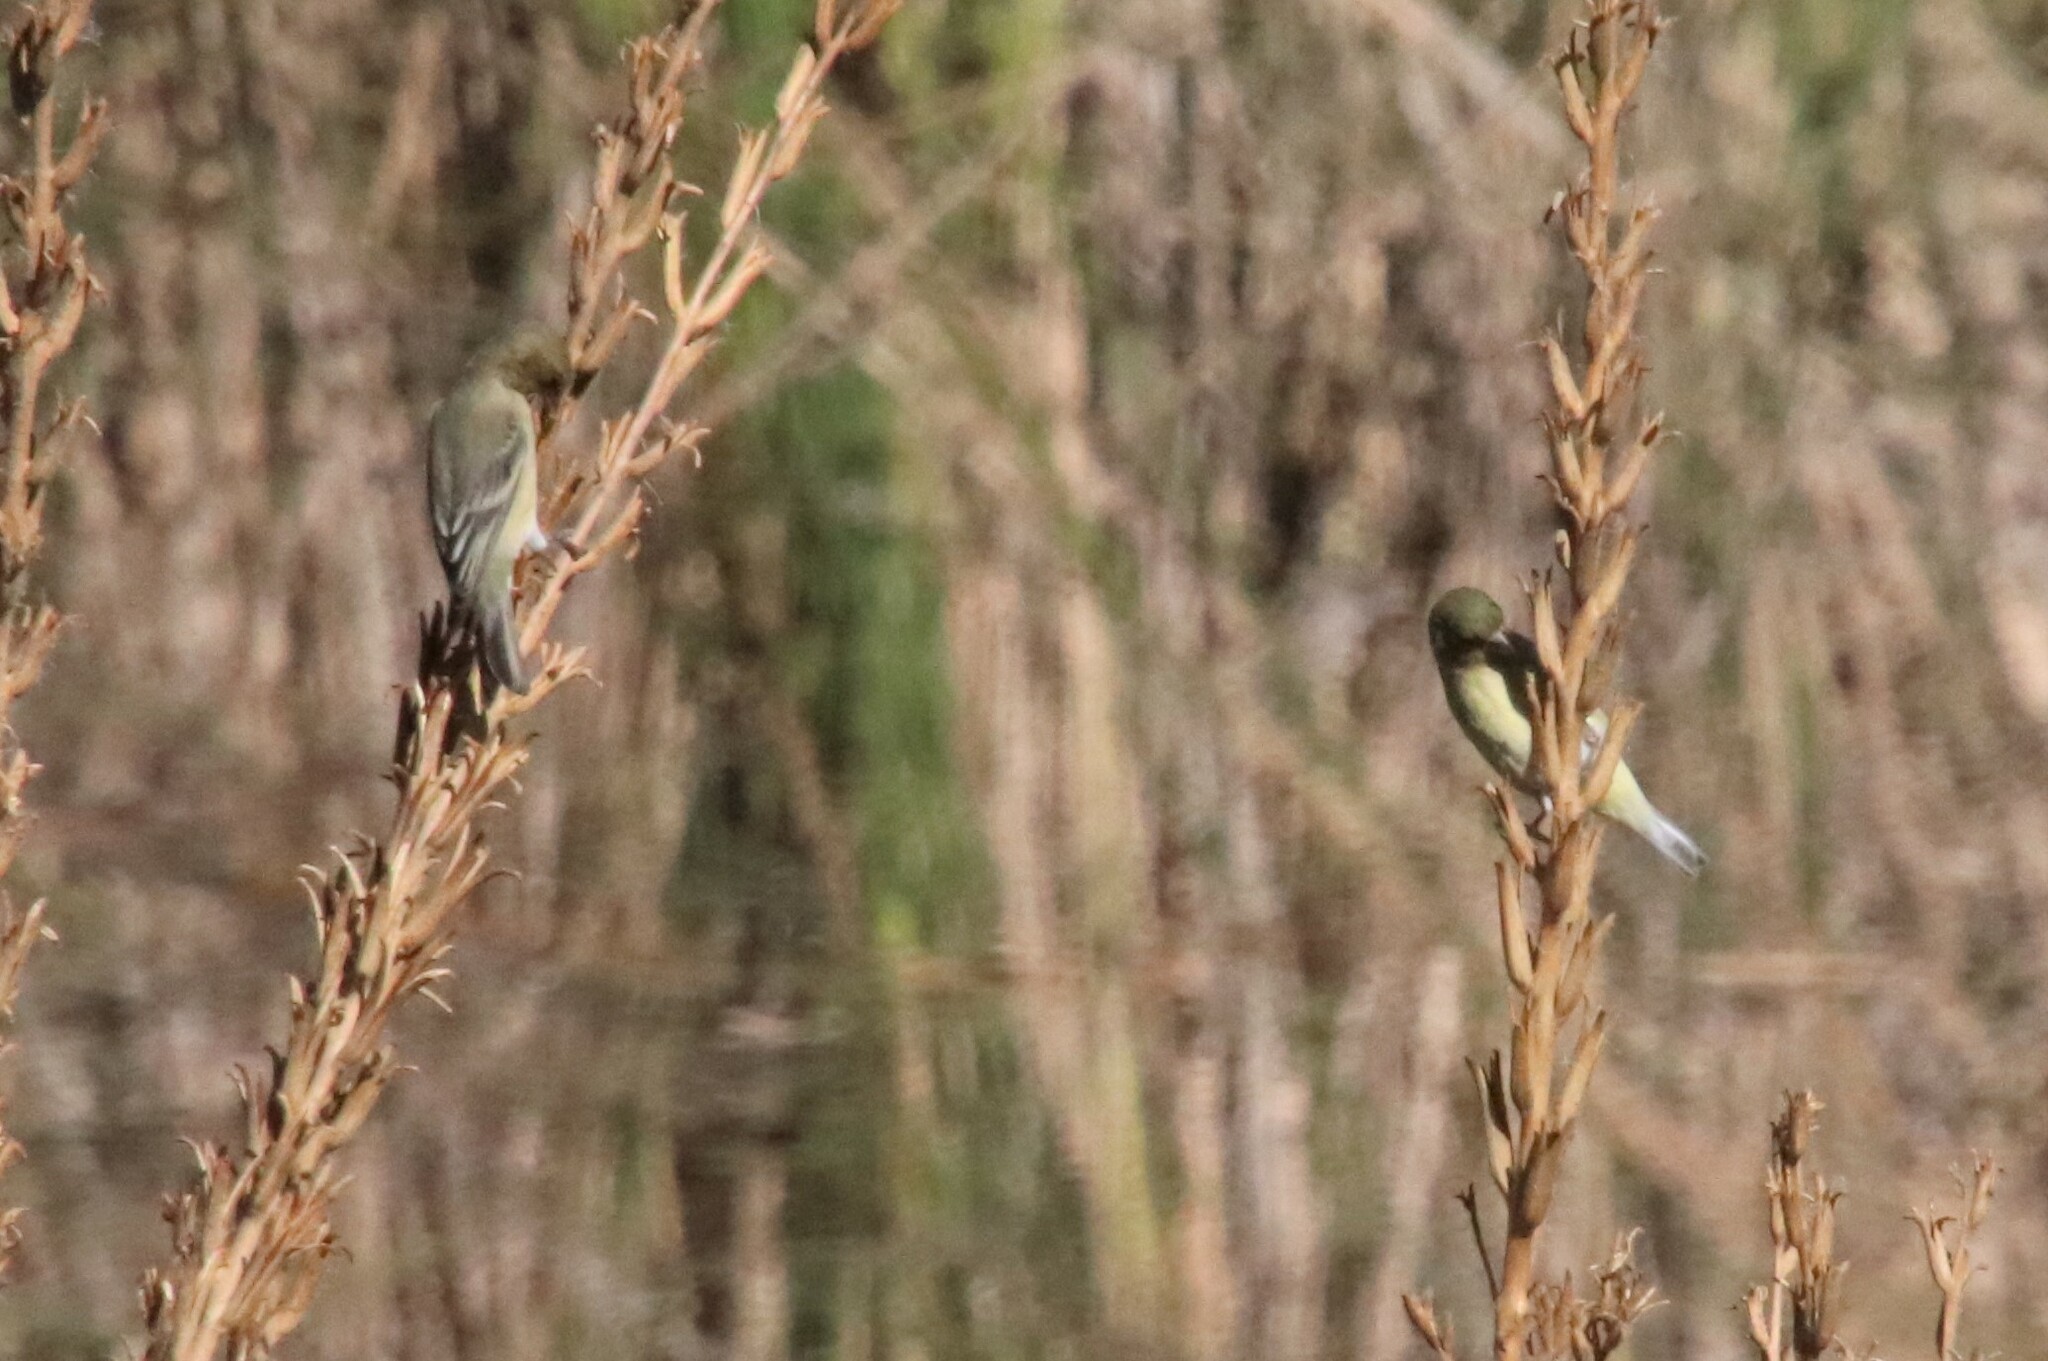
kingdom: Animalia
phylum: Chordata
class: Aves
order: Passeriformes
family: Fringillidae
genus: Spinus
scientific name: Spinus psaltria
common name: Lesser goldfinch
